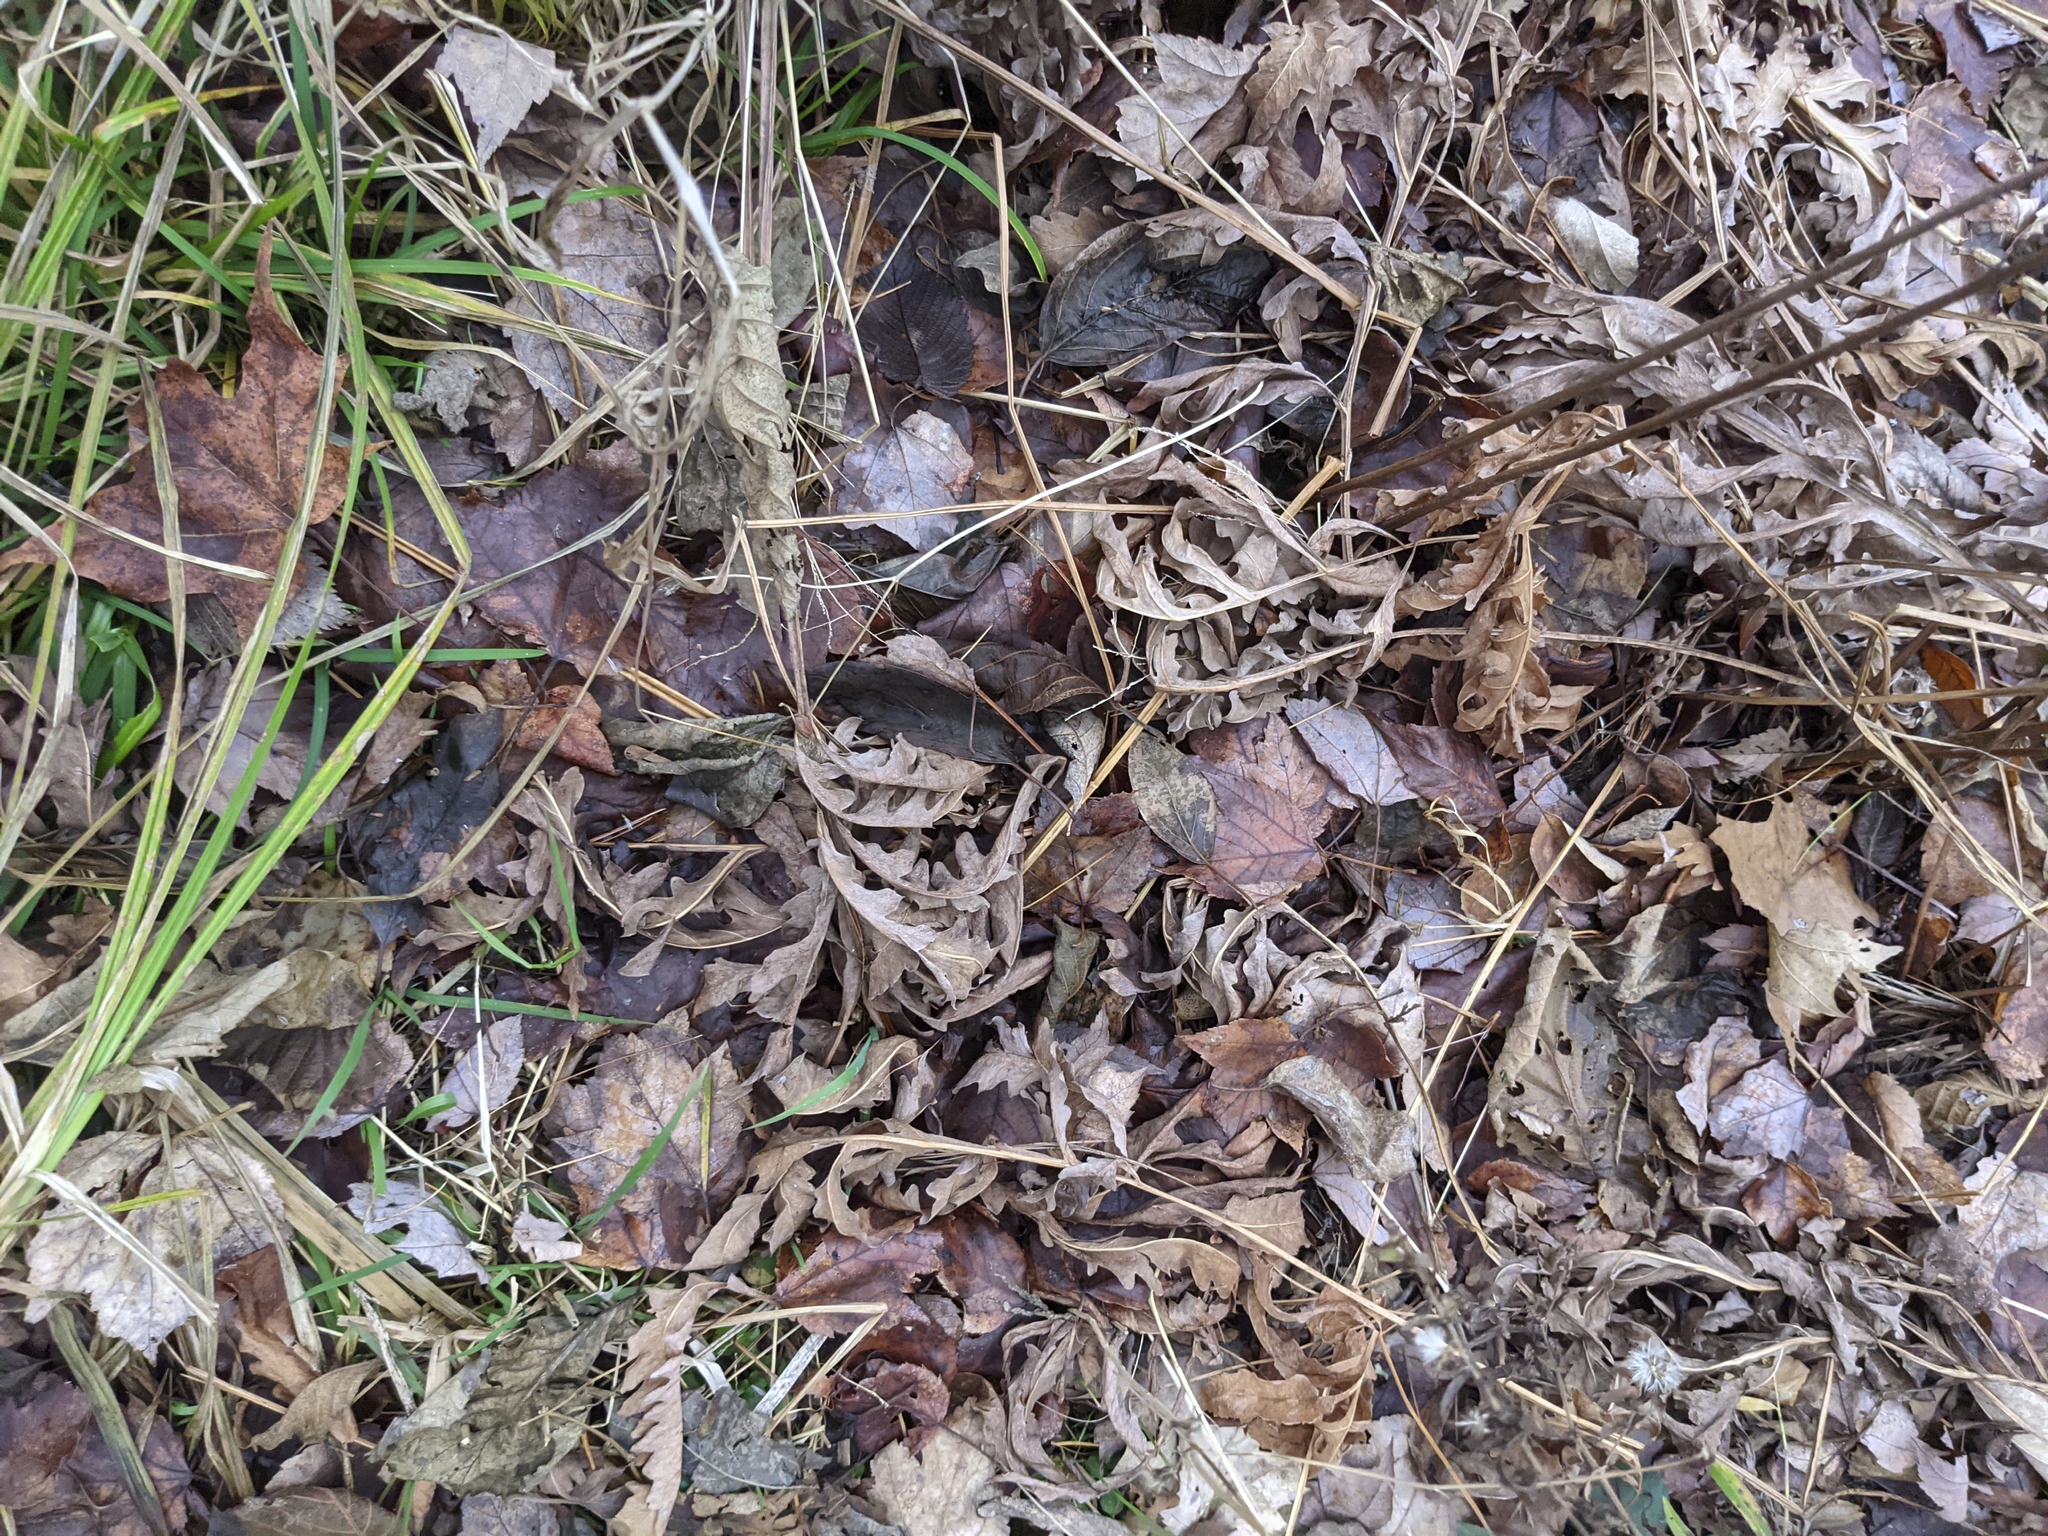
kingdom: Plantae
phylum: Tracheophyta
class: Polypodiopsida
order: Polypodiales
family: Onocleaceae
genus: Onoclea
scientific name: Onoclea sensibilis
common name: Sensitive fern
